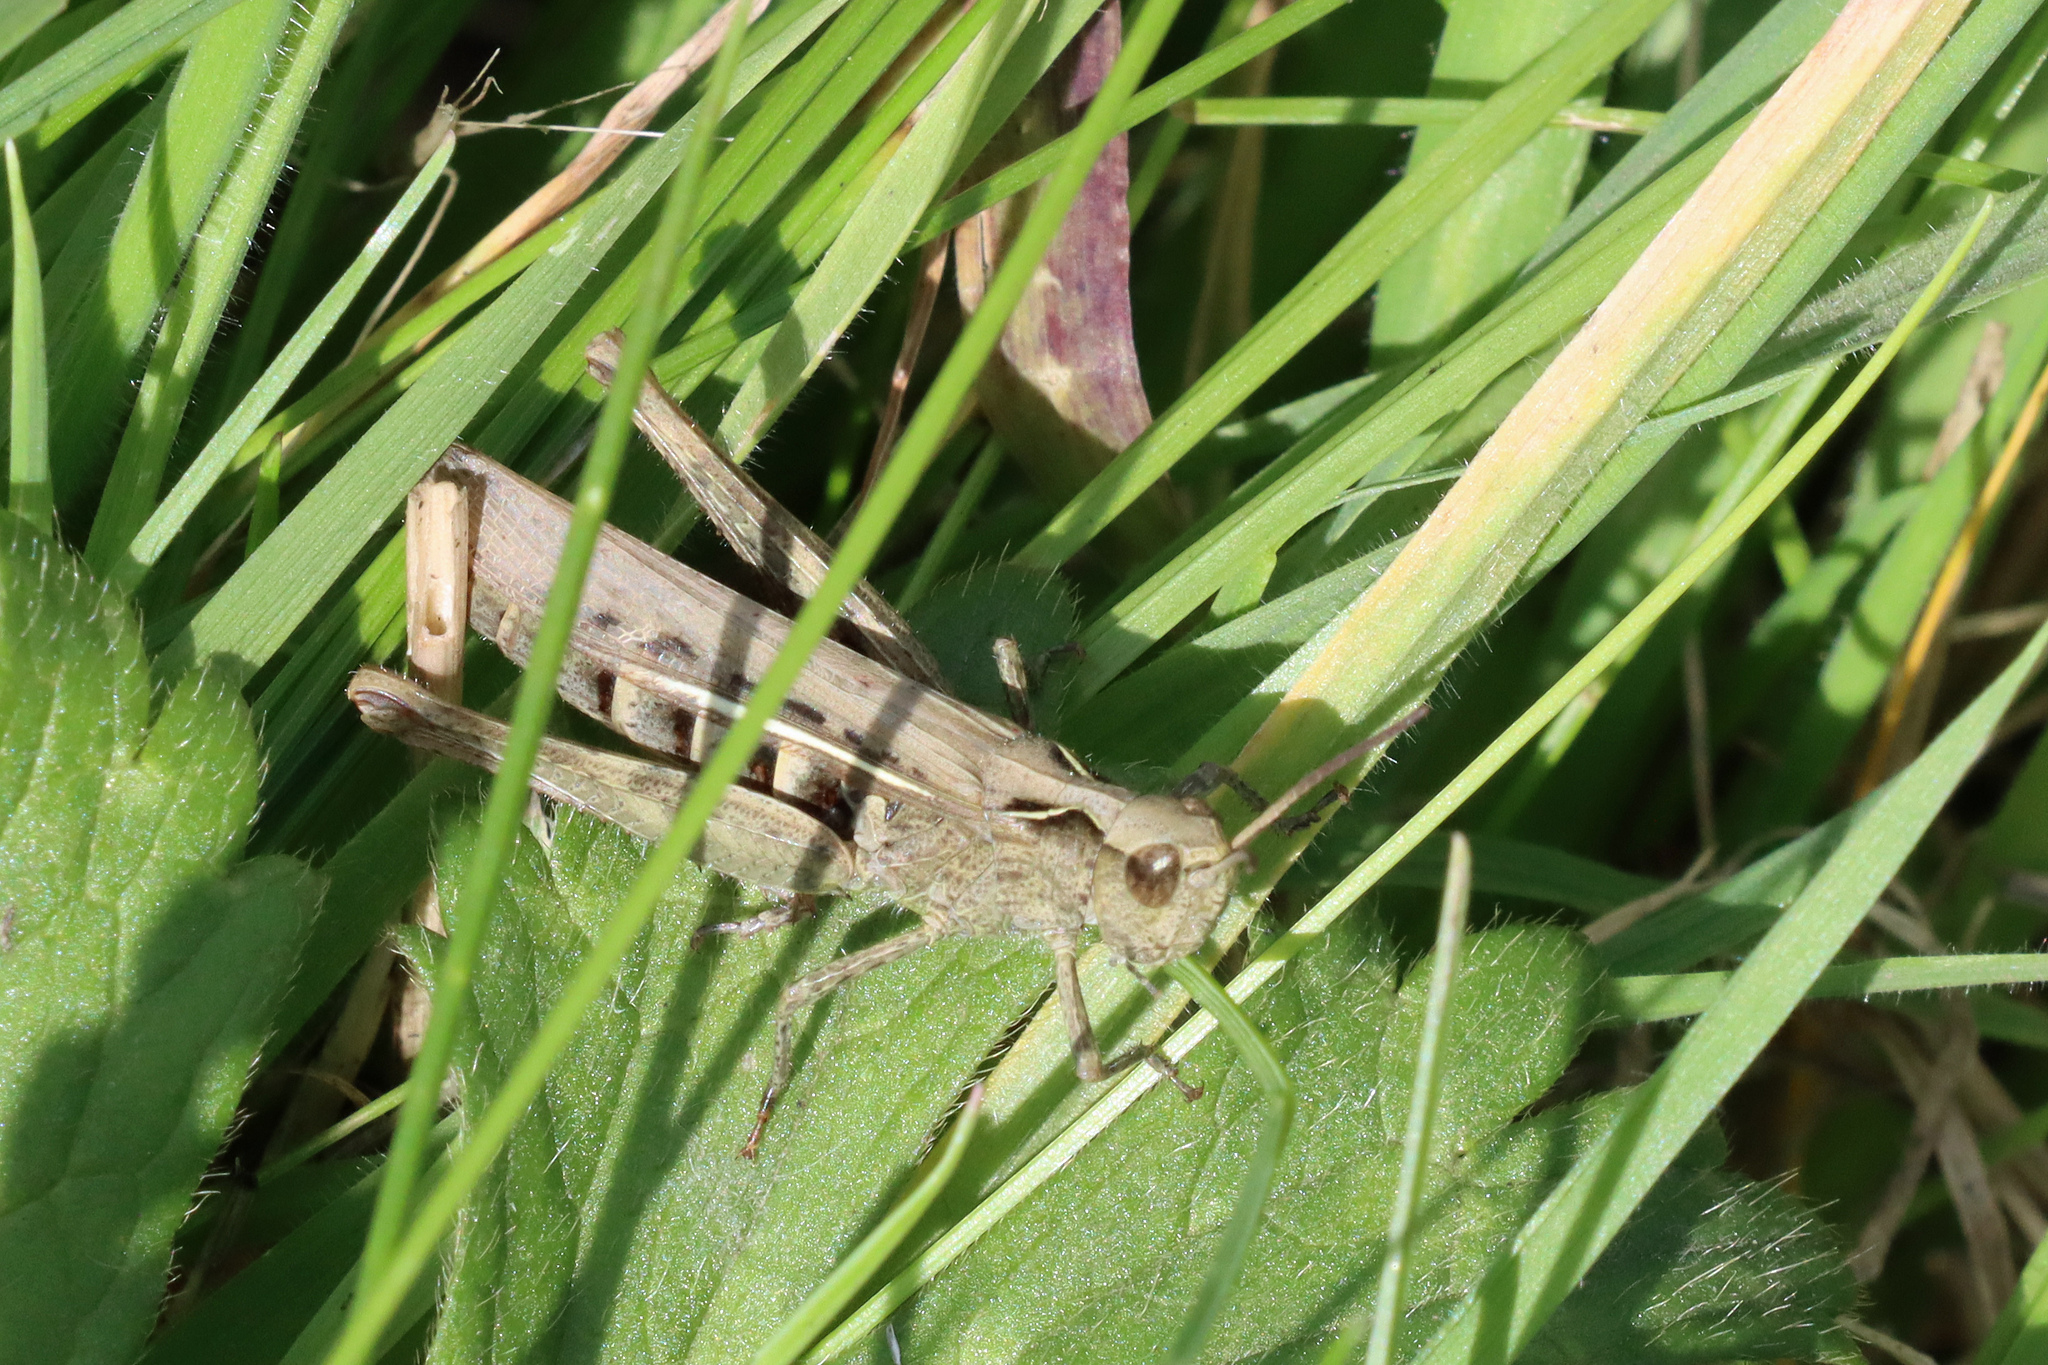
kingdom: Animalia
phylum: Arthropoda
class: Insecta
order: Orthoptera
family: Acrididae
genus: Chorthippus
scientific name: Chorthippus brunneus
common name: Field grasshopper
